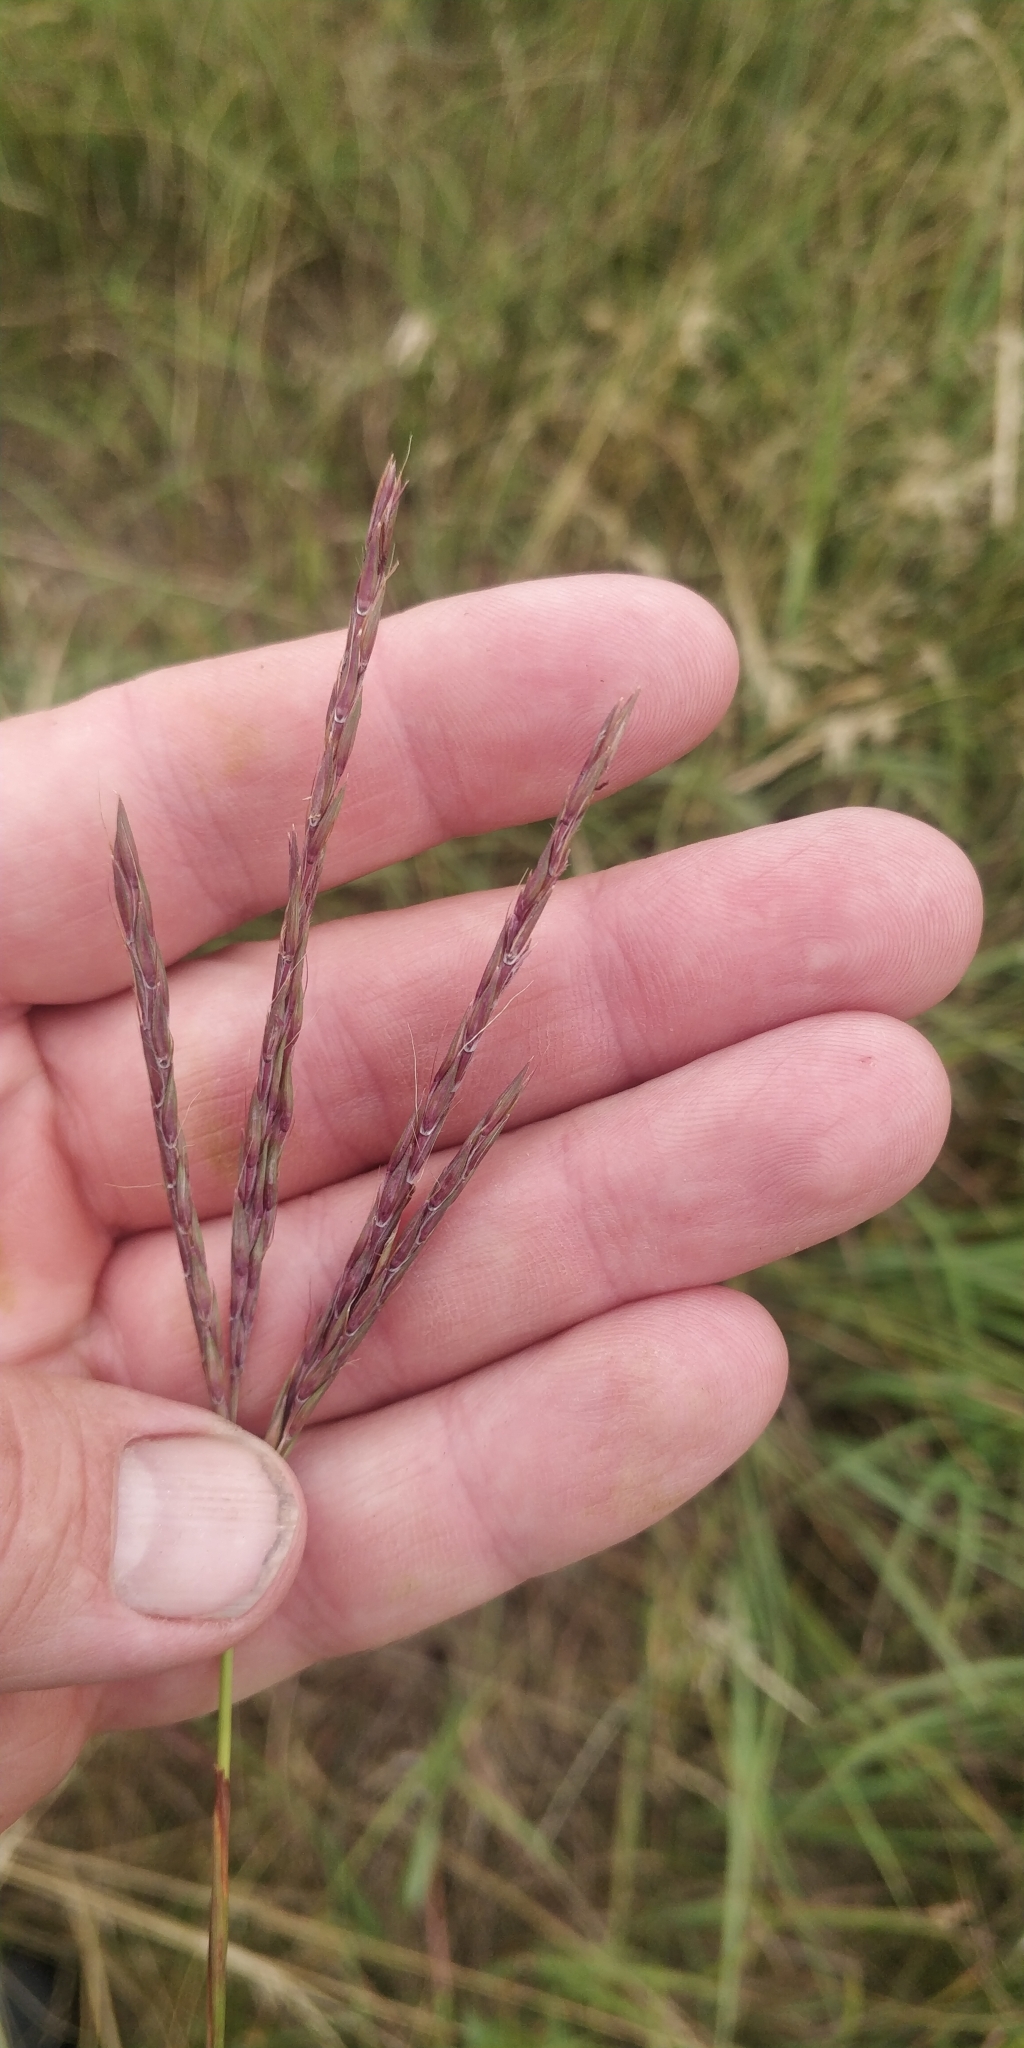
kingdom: Plantae
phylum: Tracheophyta
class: Liliopsida
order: Poales
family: Poaceae
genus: Andropogon
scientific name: Andropogon gerardi
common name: Big bluestem
